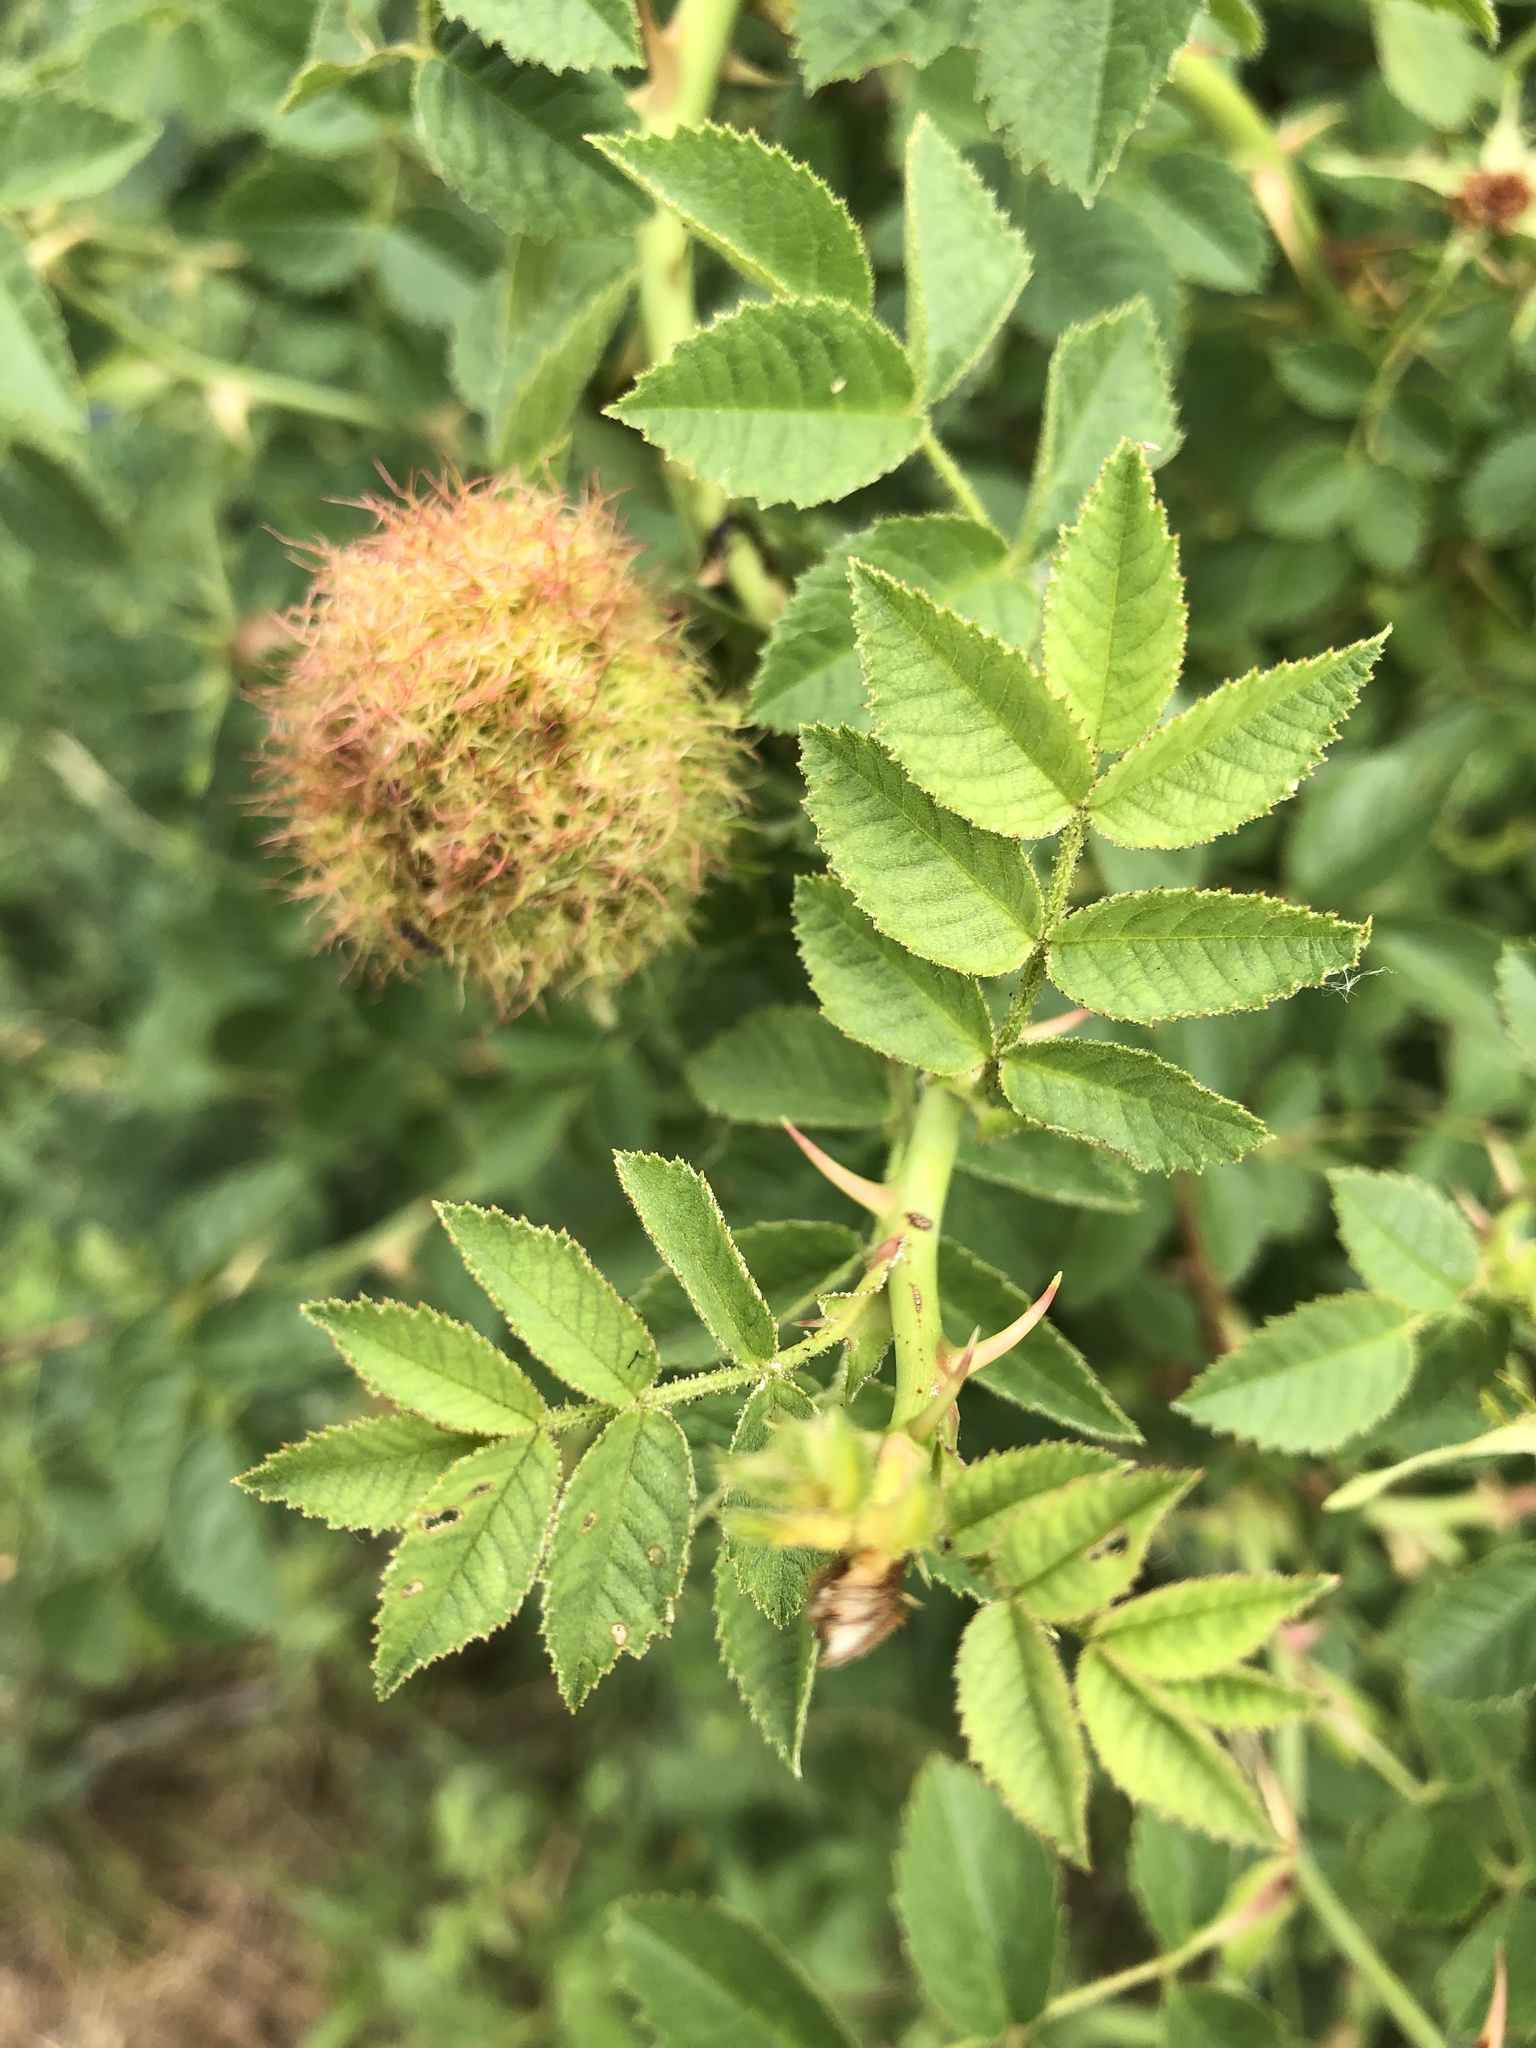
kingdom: Animalia
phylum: Arthropoda
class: Insecta
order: Hymenoptera
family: Cynipidae
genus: Diplolepis
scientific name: Diplolepis rosae
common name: Bedeguar gall
